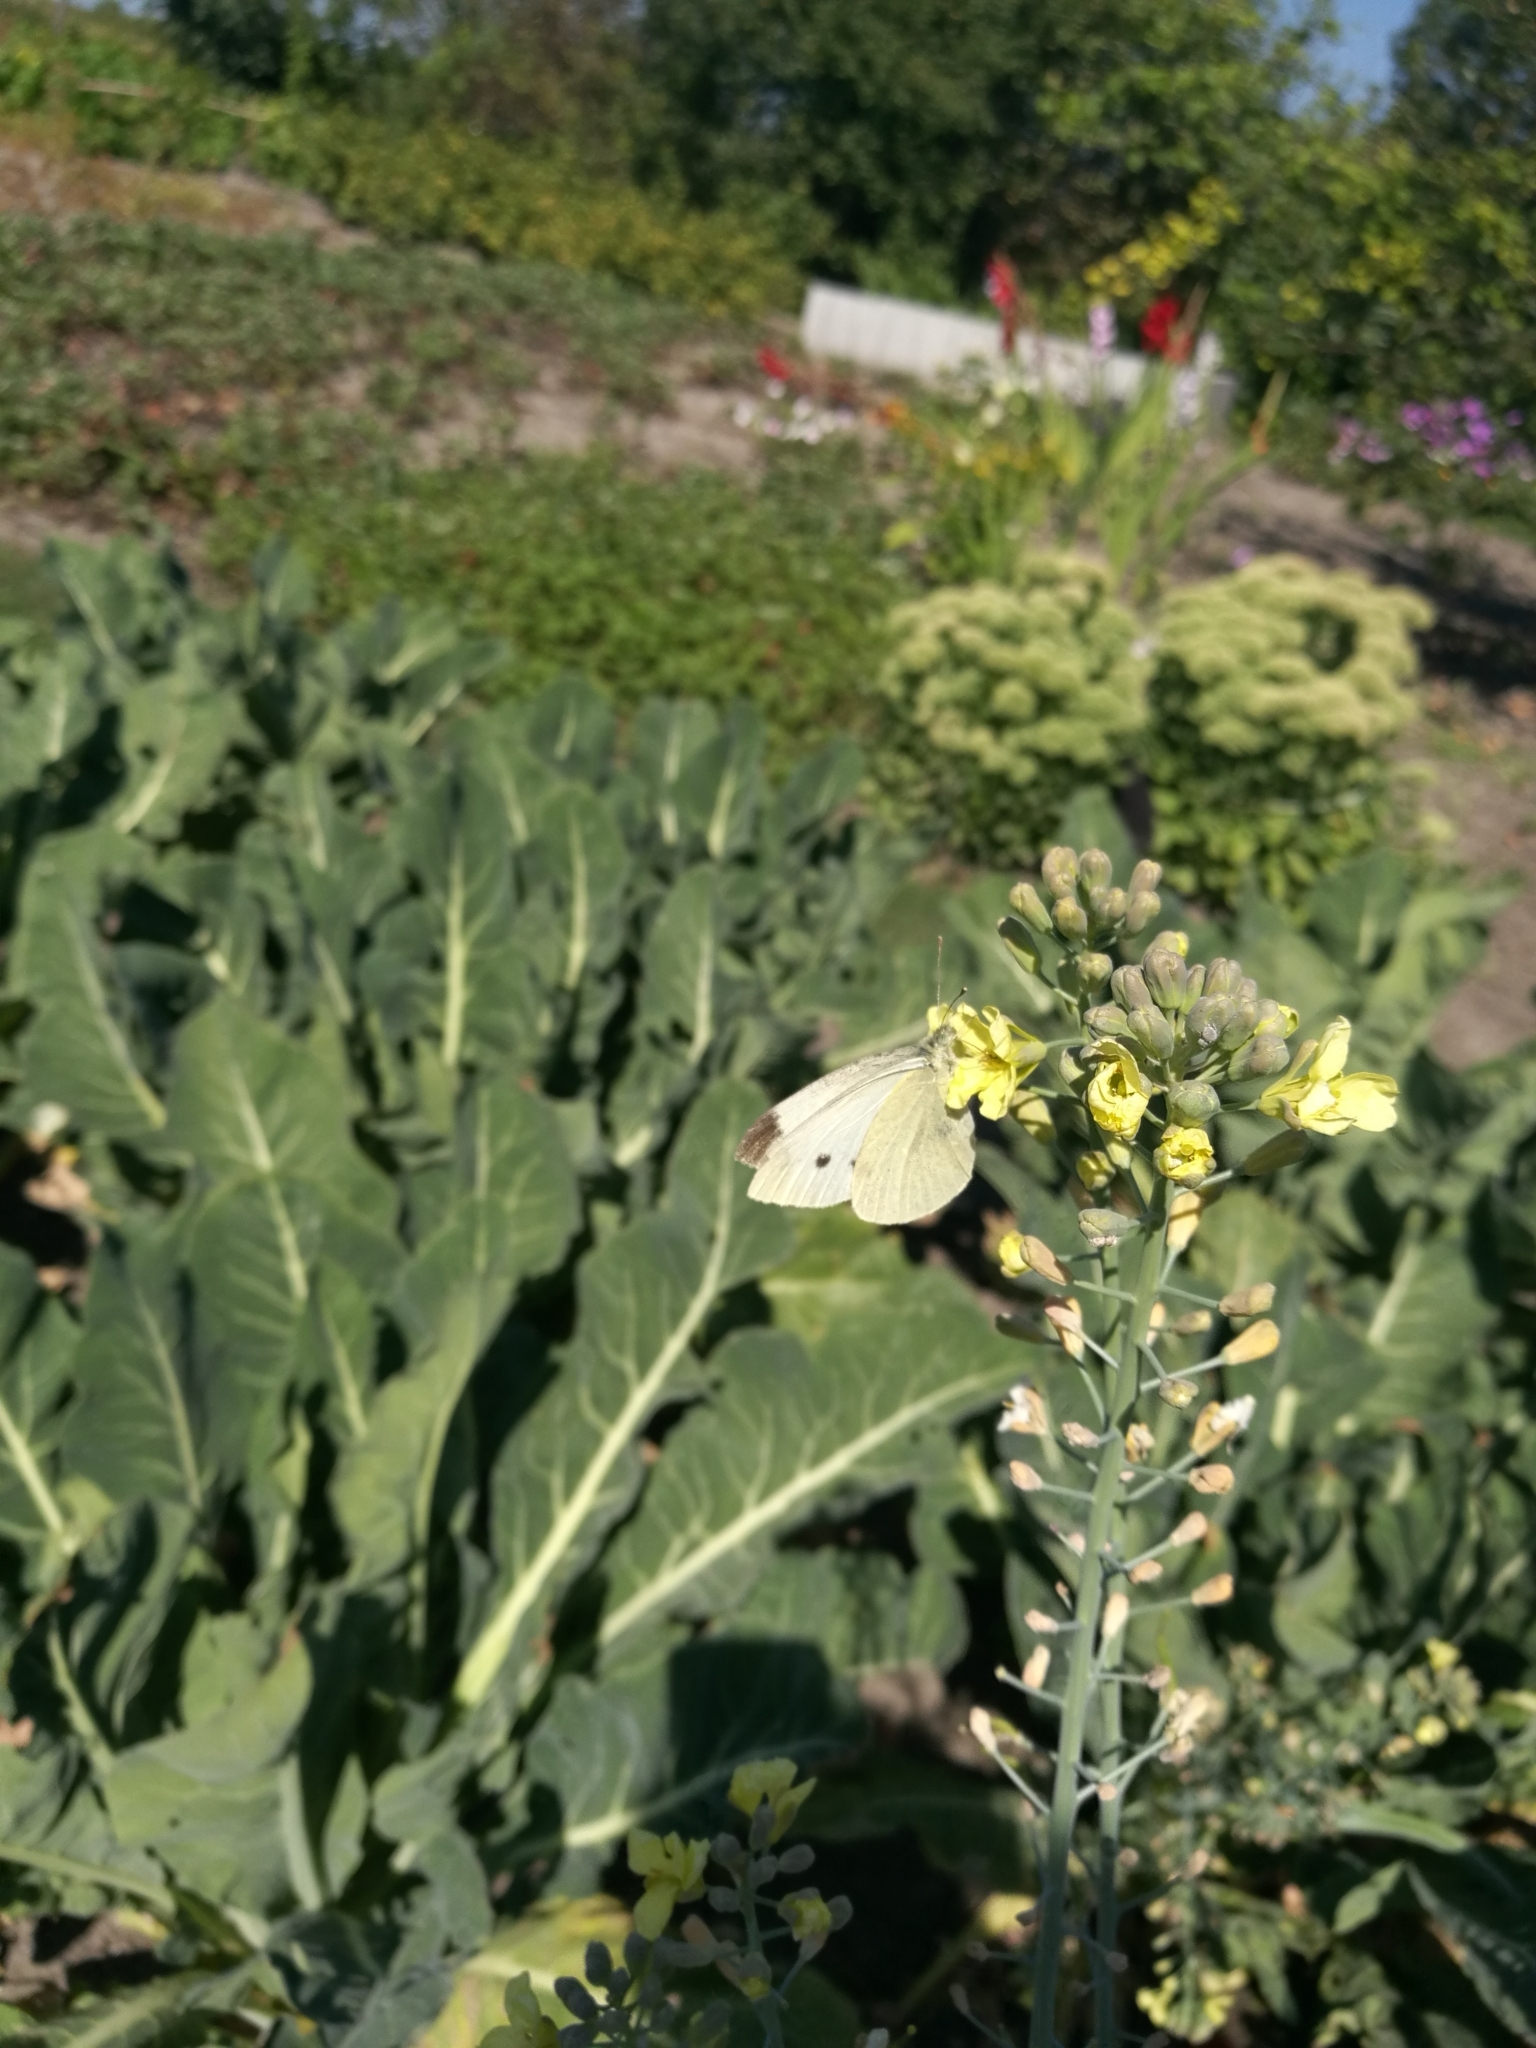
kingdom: Animalia
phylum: Arthropoda
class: Insecta
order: Lepidoptera
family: Pieridae
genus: Pieris
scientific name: Pieris rapae
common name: Small white
